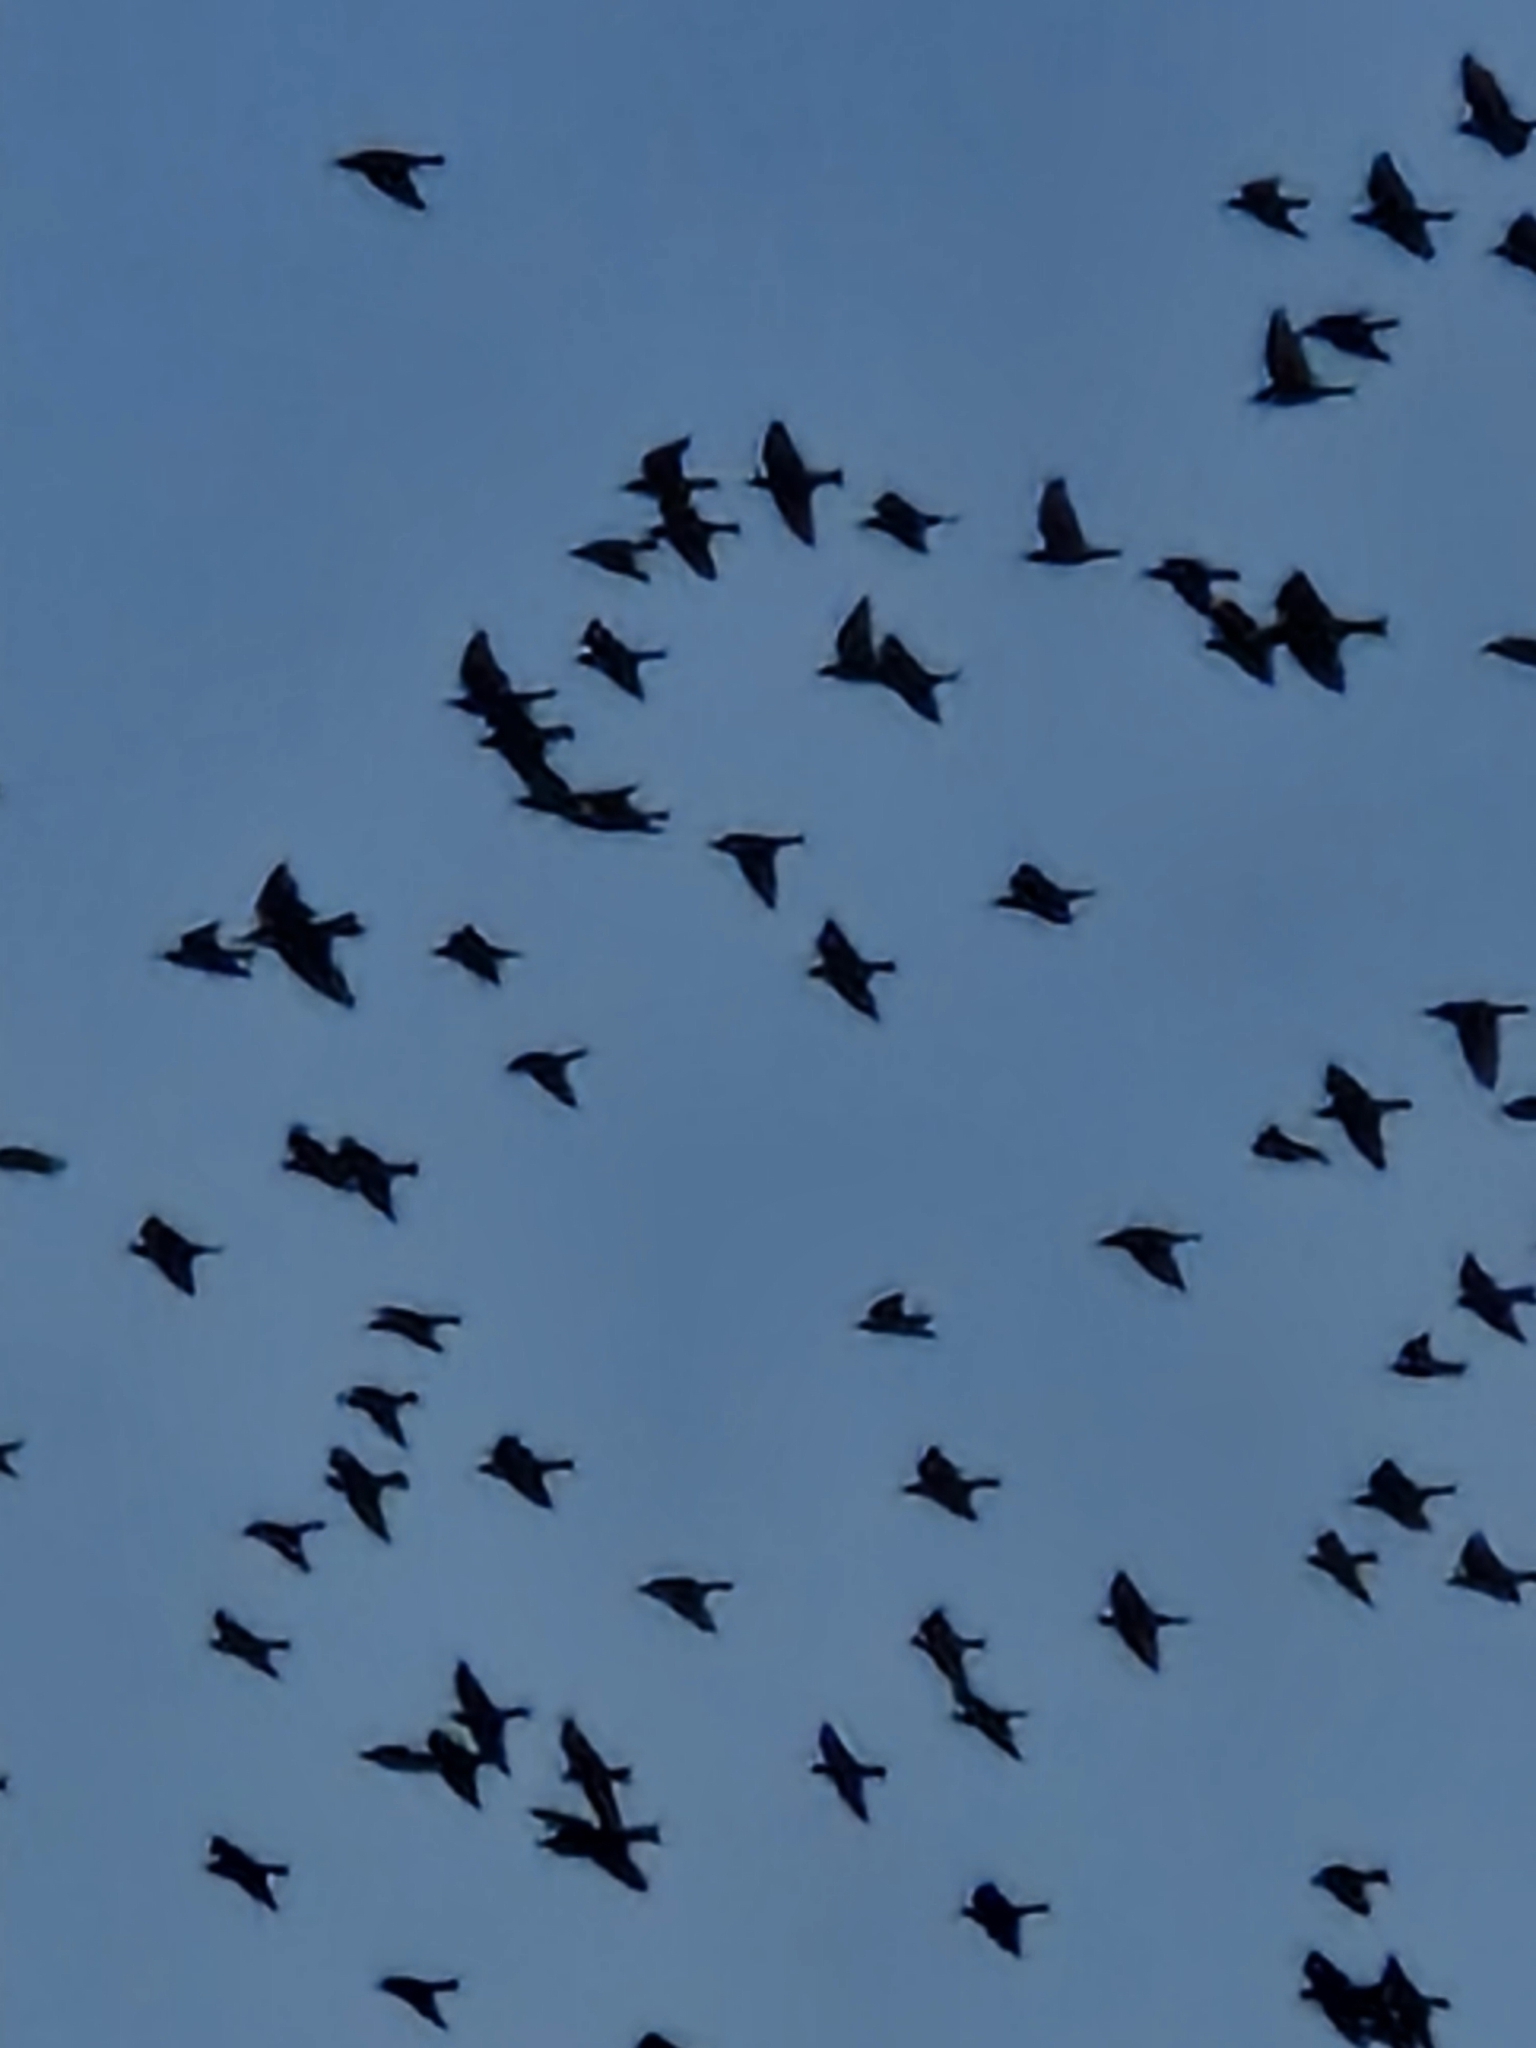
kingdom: Animalia
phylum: Chordata
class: Aves
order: Passeriformes
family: Sturnidae
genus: Sturnus
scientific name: Sturnus vulgaris
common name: Common starling
